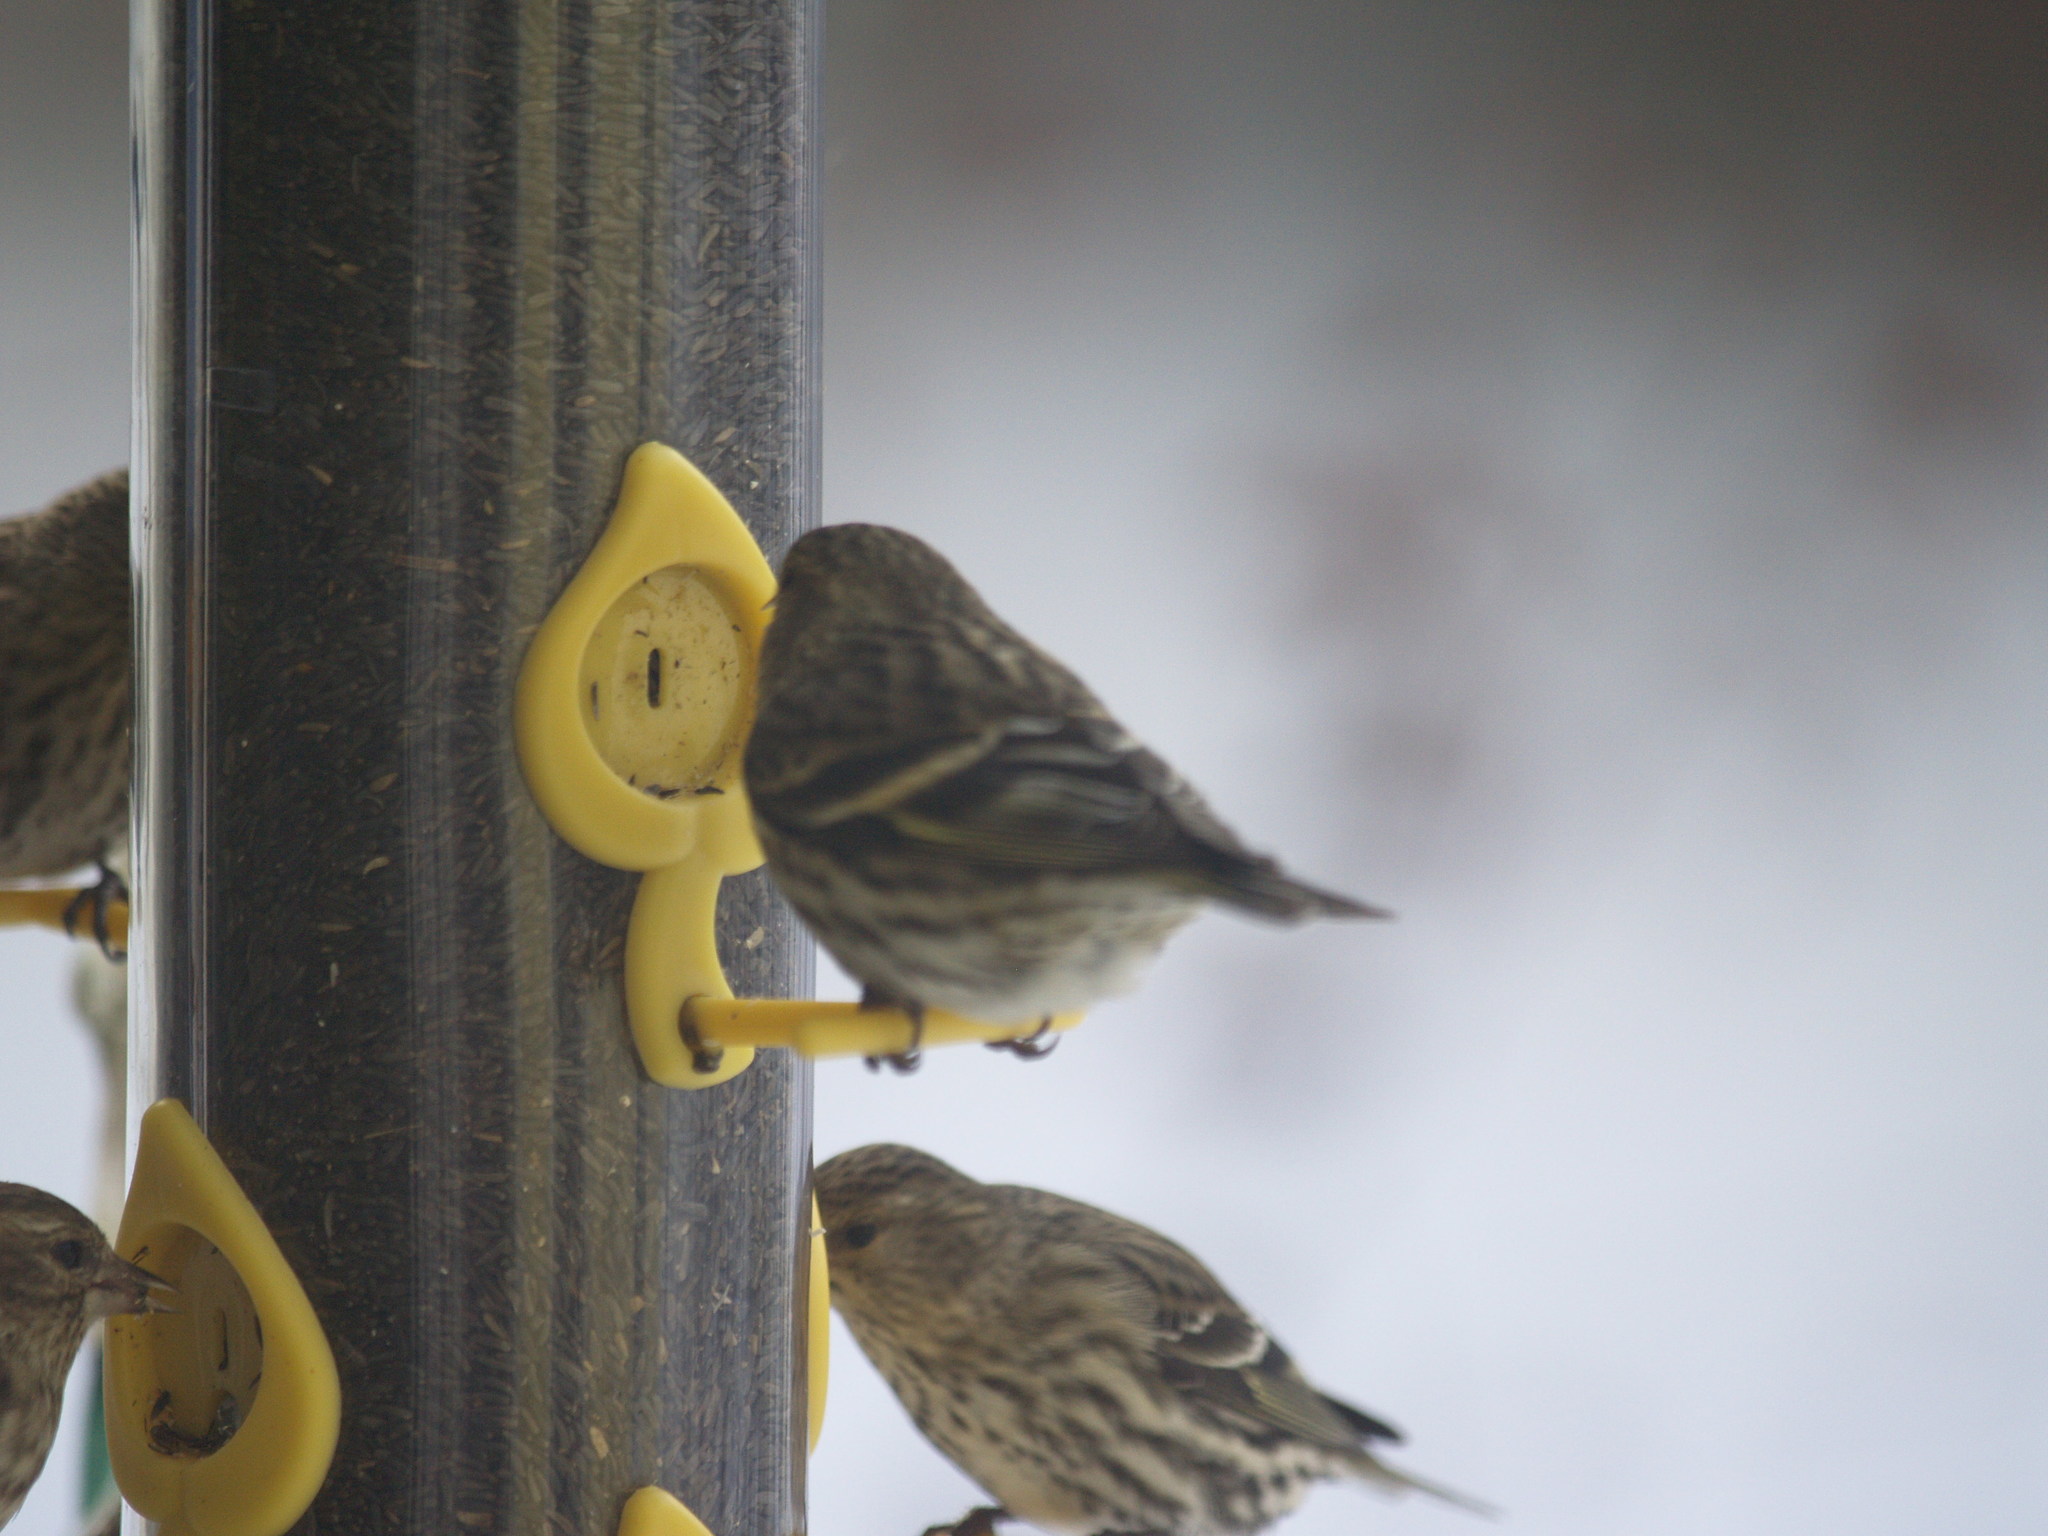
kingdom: Animalia
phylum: Chordata
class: Aves
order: Passeriformes
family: Fringillidae
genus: Spinus
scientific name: Spinus pinus
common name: Pine siskin
